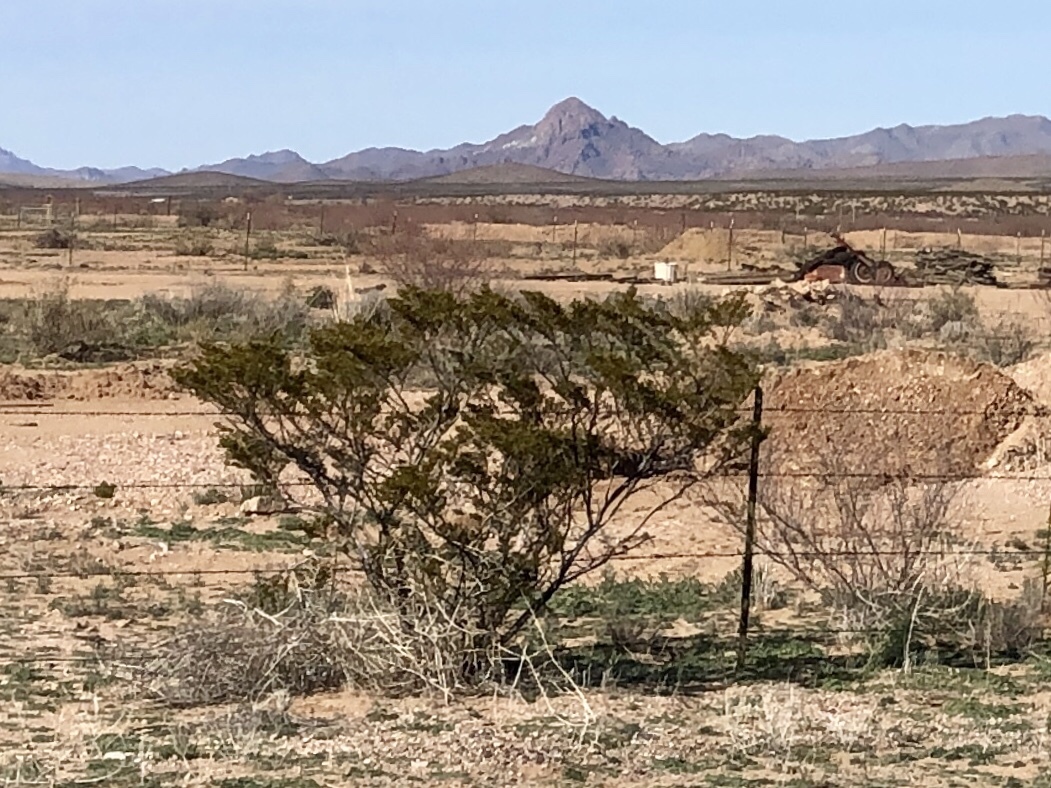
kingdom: Plantae
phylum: Tracheophyta
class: Magnoliopsida
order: Zygophyllales
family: Zygophyllaceae
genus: Larrea
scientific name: Larrea tridentata
